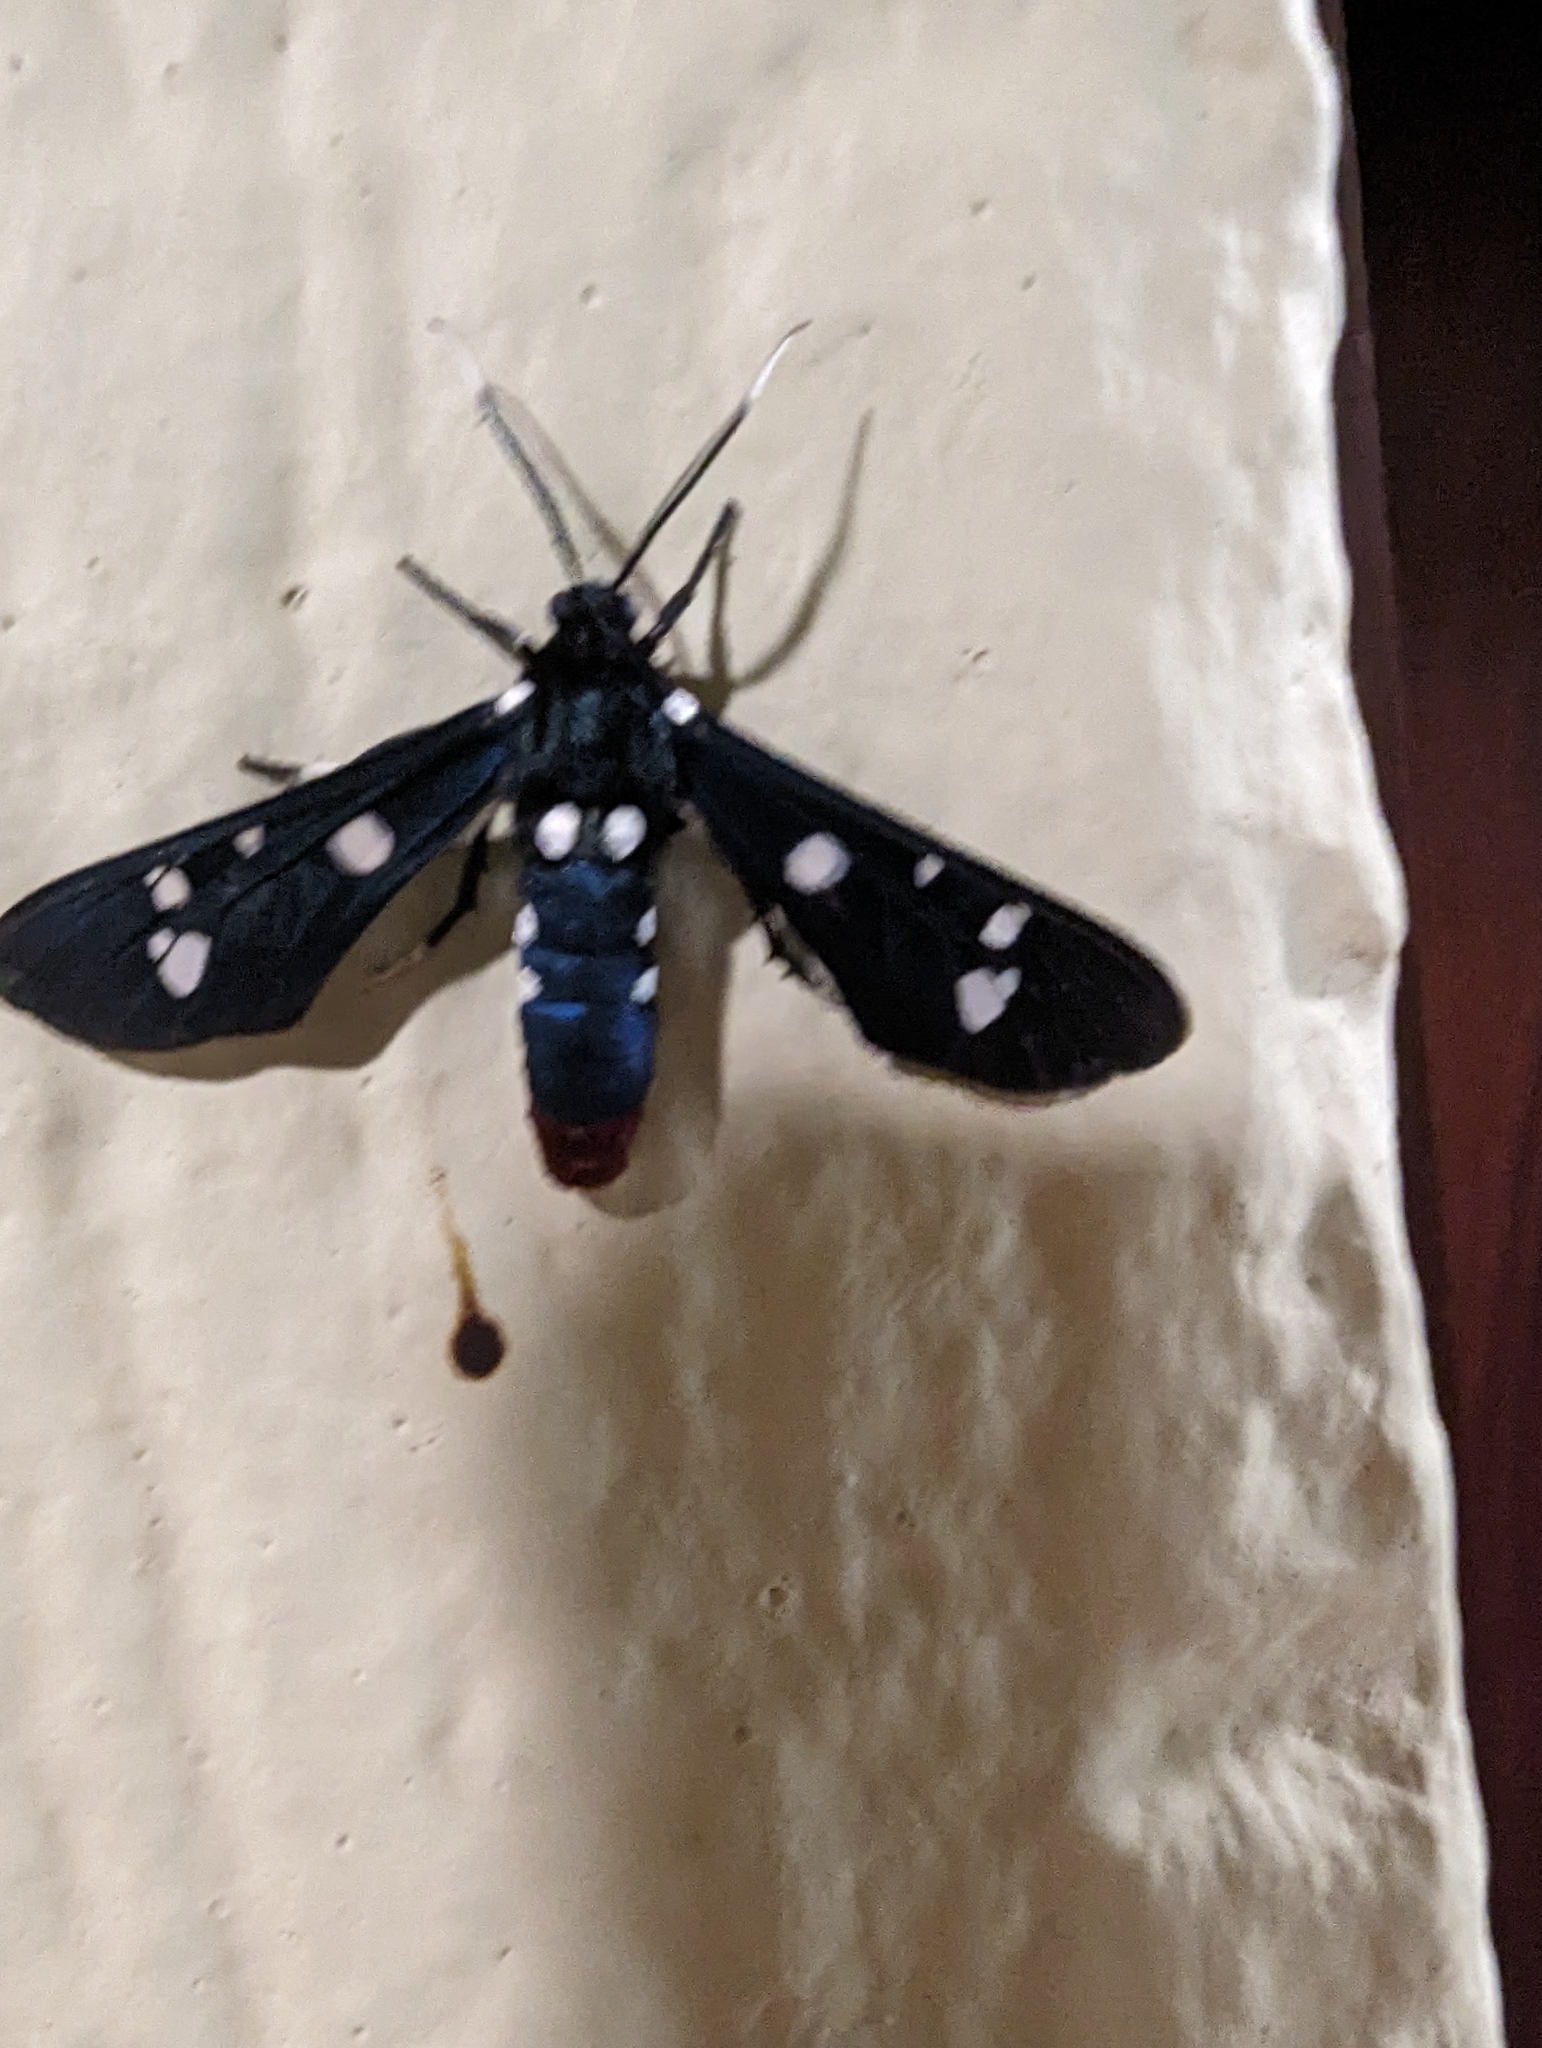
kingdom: Animalia
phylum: Arthropoda
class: Insecta
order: Lepidoptera
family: Erebidae
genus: Syntomeida
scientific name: Syntomeida epilais
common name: Polka-dot wasp moth
